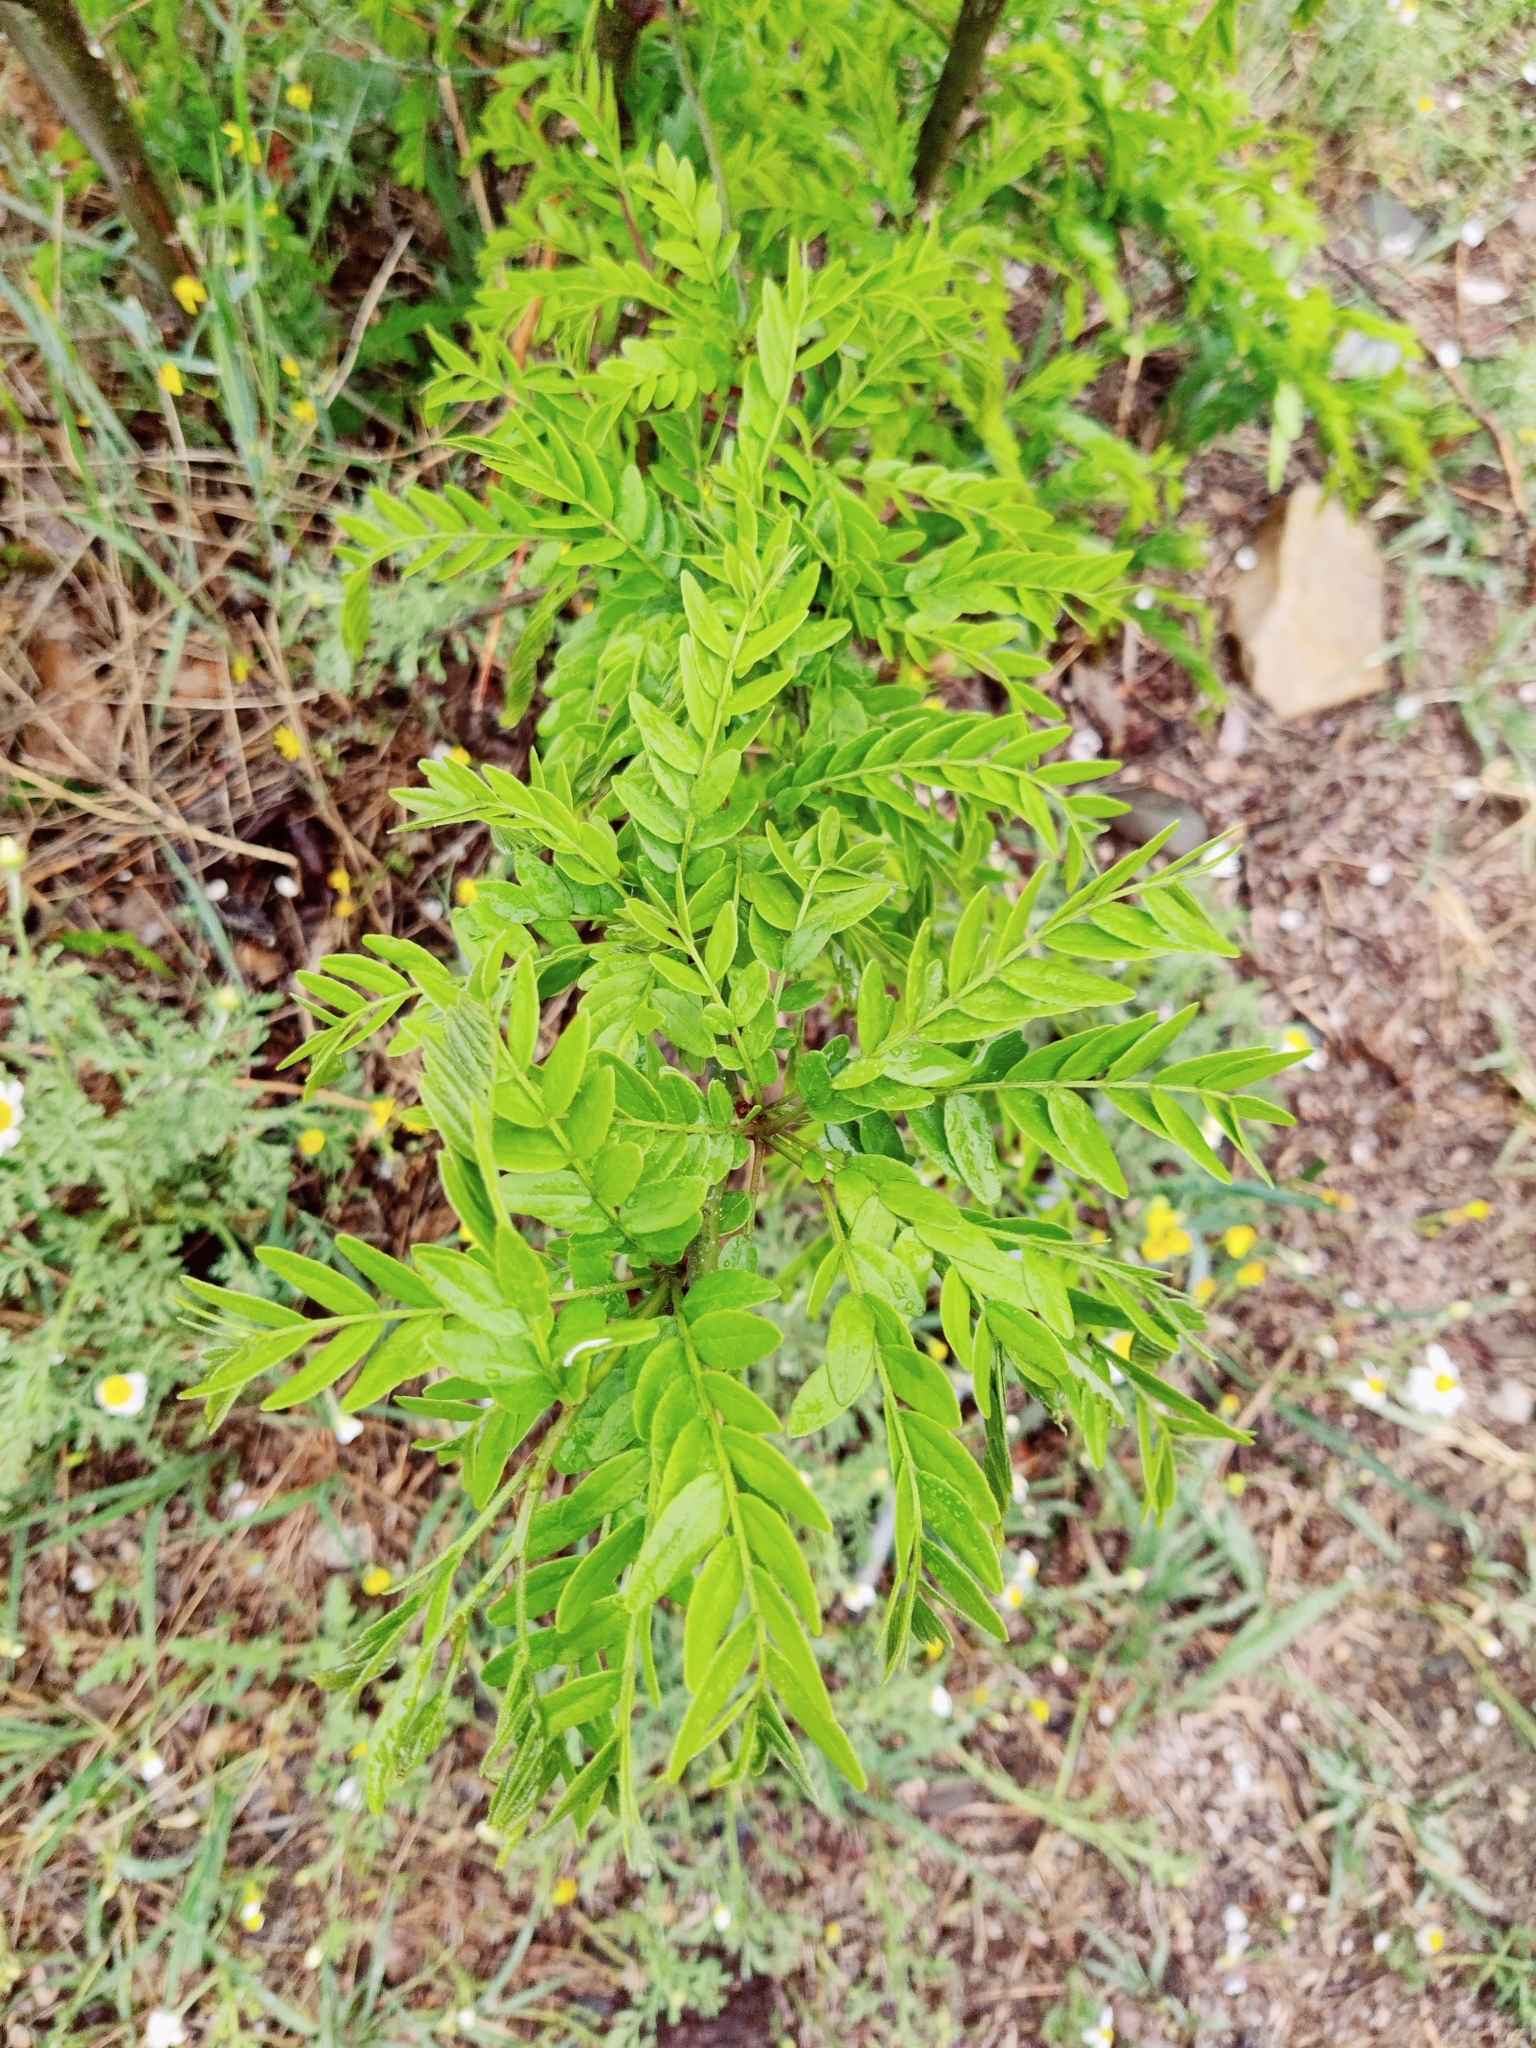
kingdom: Plantae
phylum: Tracheophyta
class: Magnoliopsida
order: Fabales
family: Fabaceae
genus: Gleditsia
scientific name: Gleditsia triacanthos
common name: Common honeylocust
